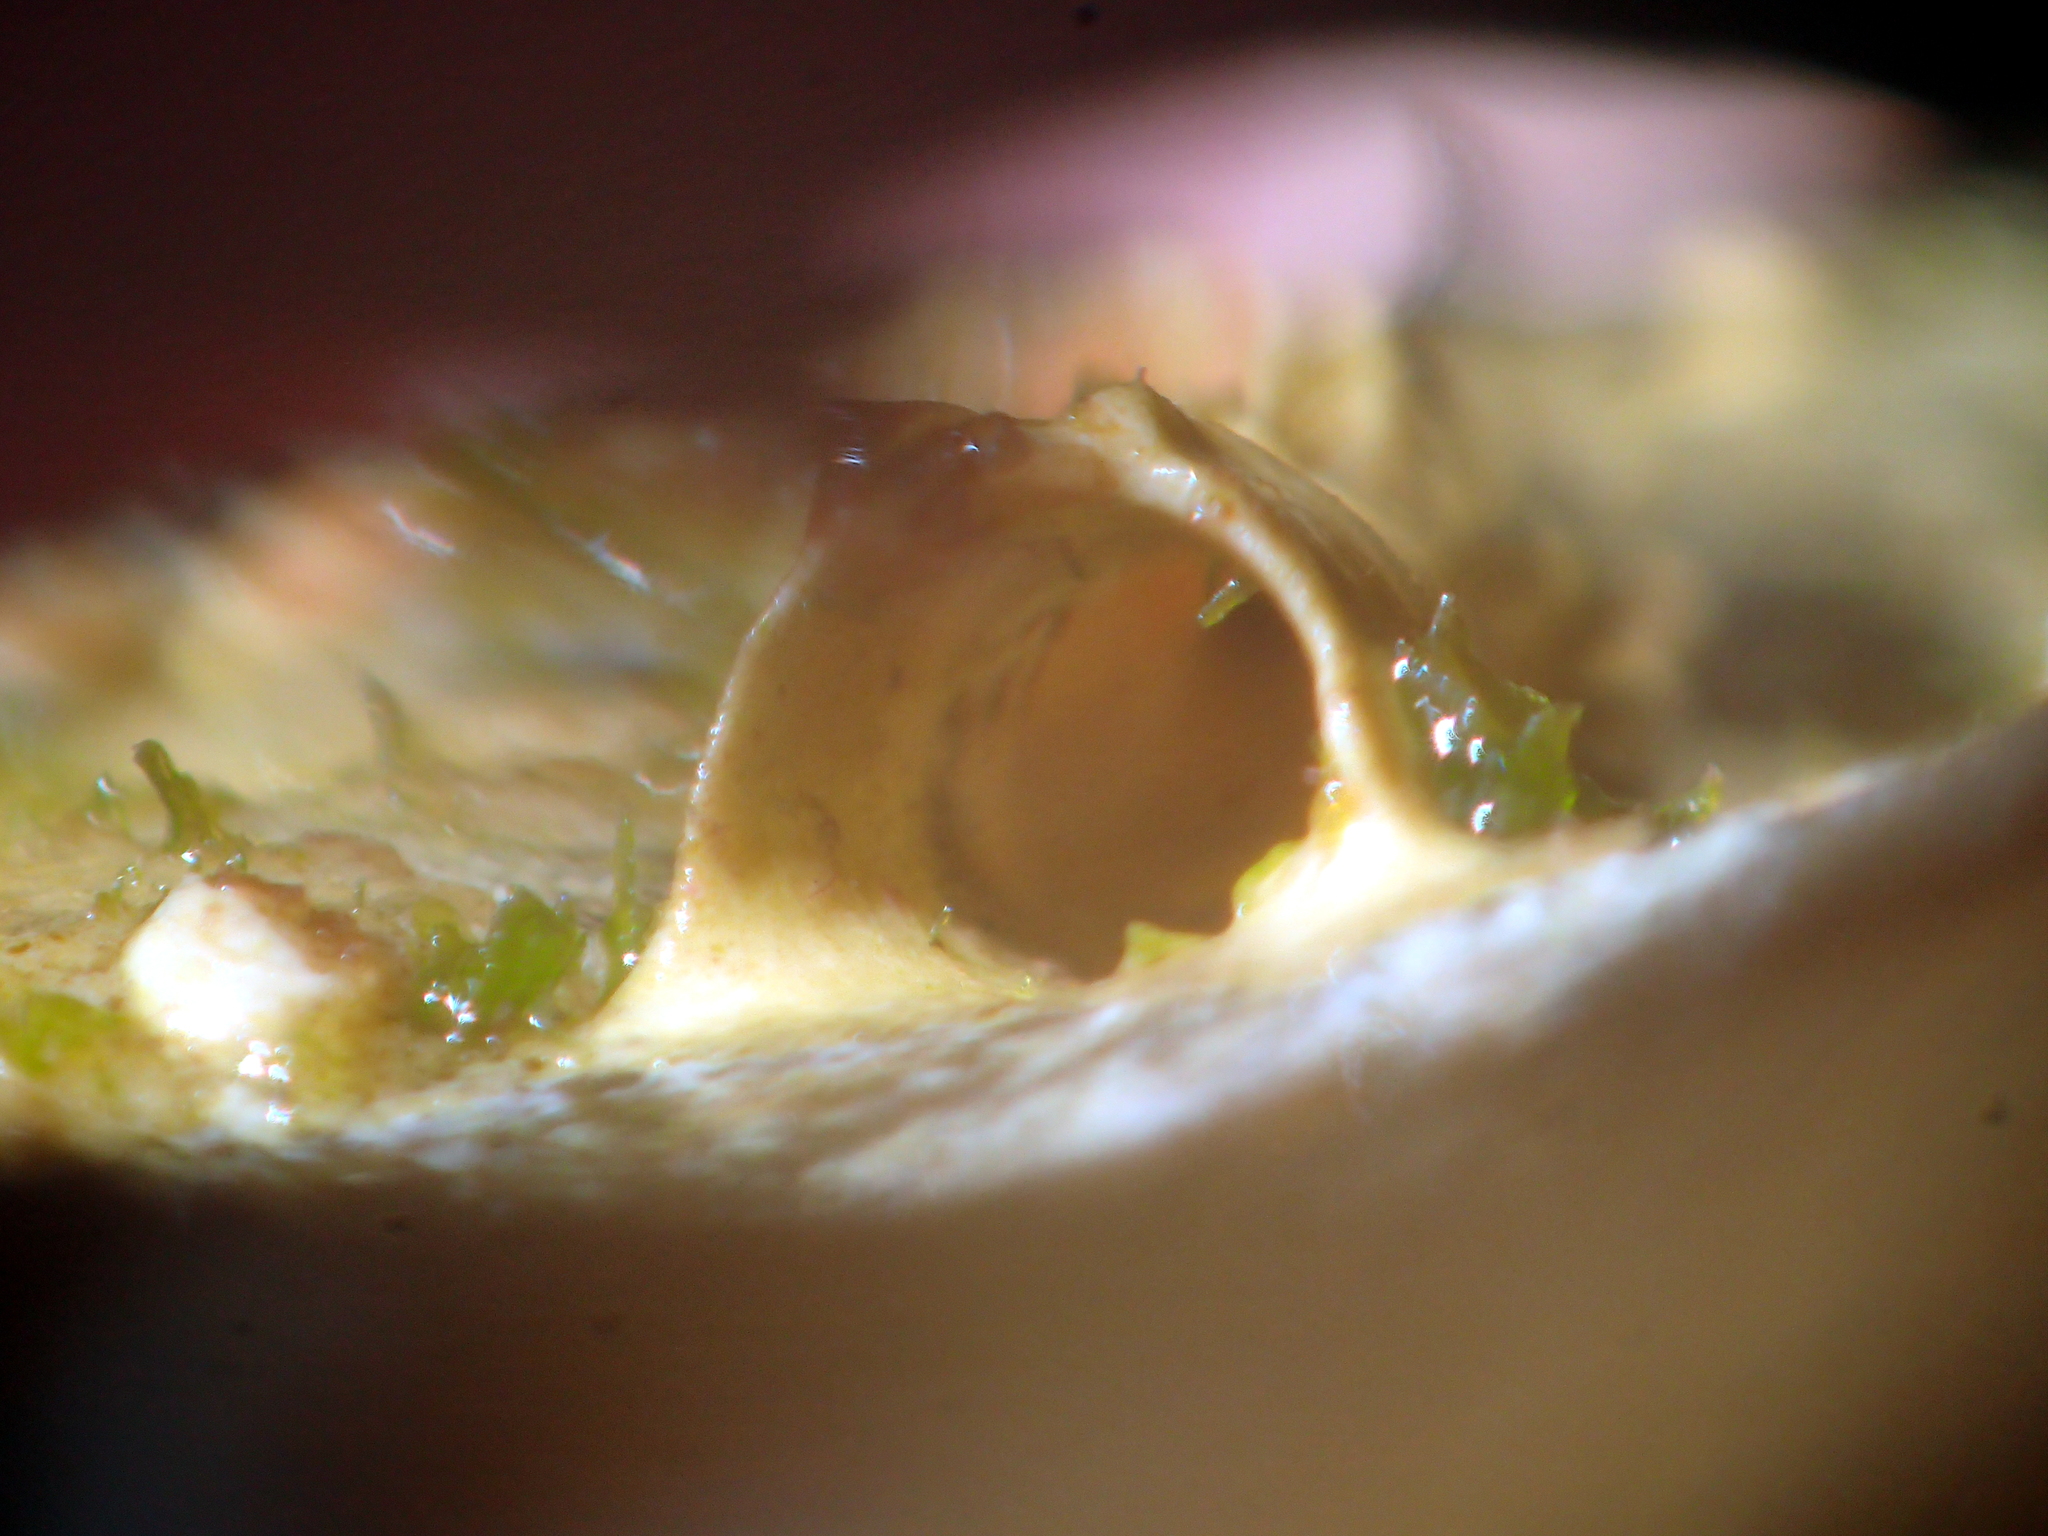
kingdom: Animalia
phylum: Annelida
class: Polychaeta
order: Sabellida
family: Serpulidae
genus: Galeolaria
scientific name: Galeolaria hystrix
